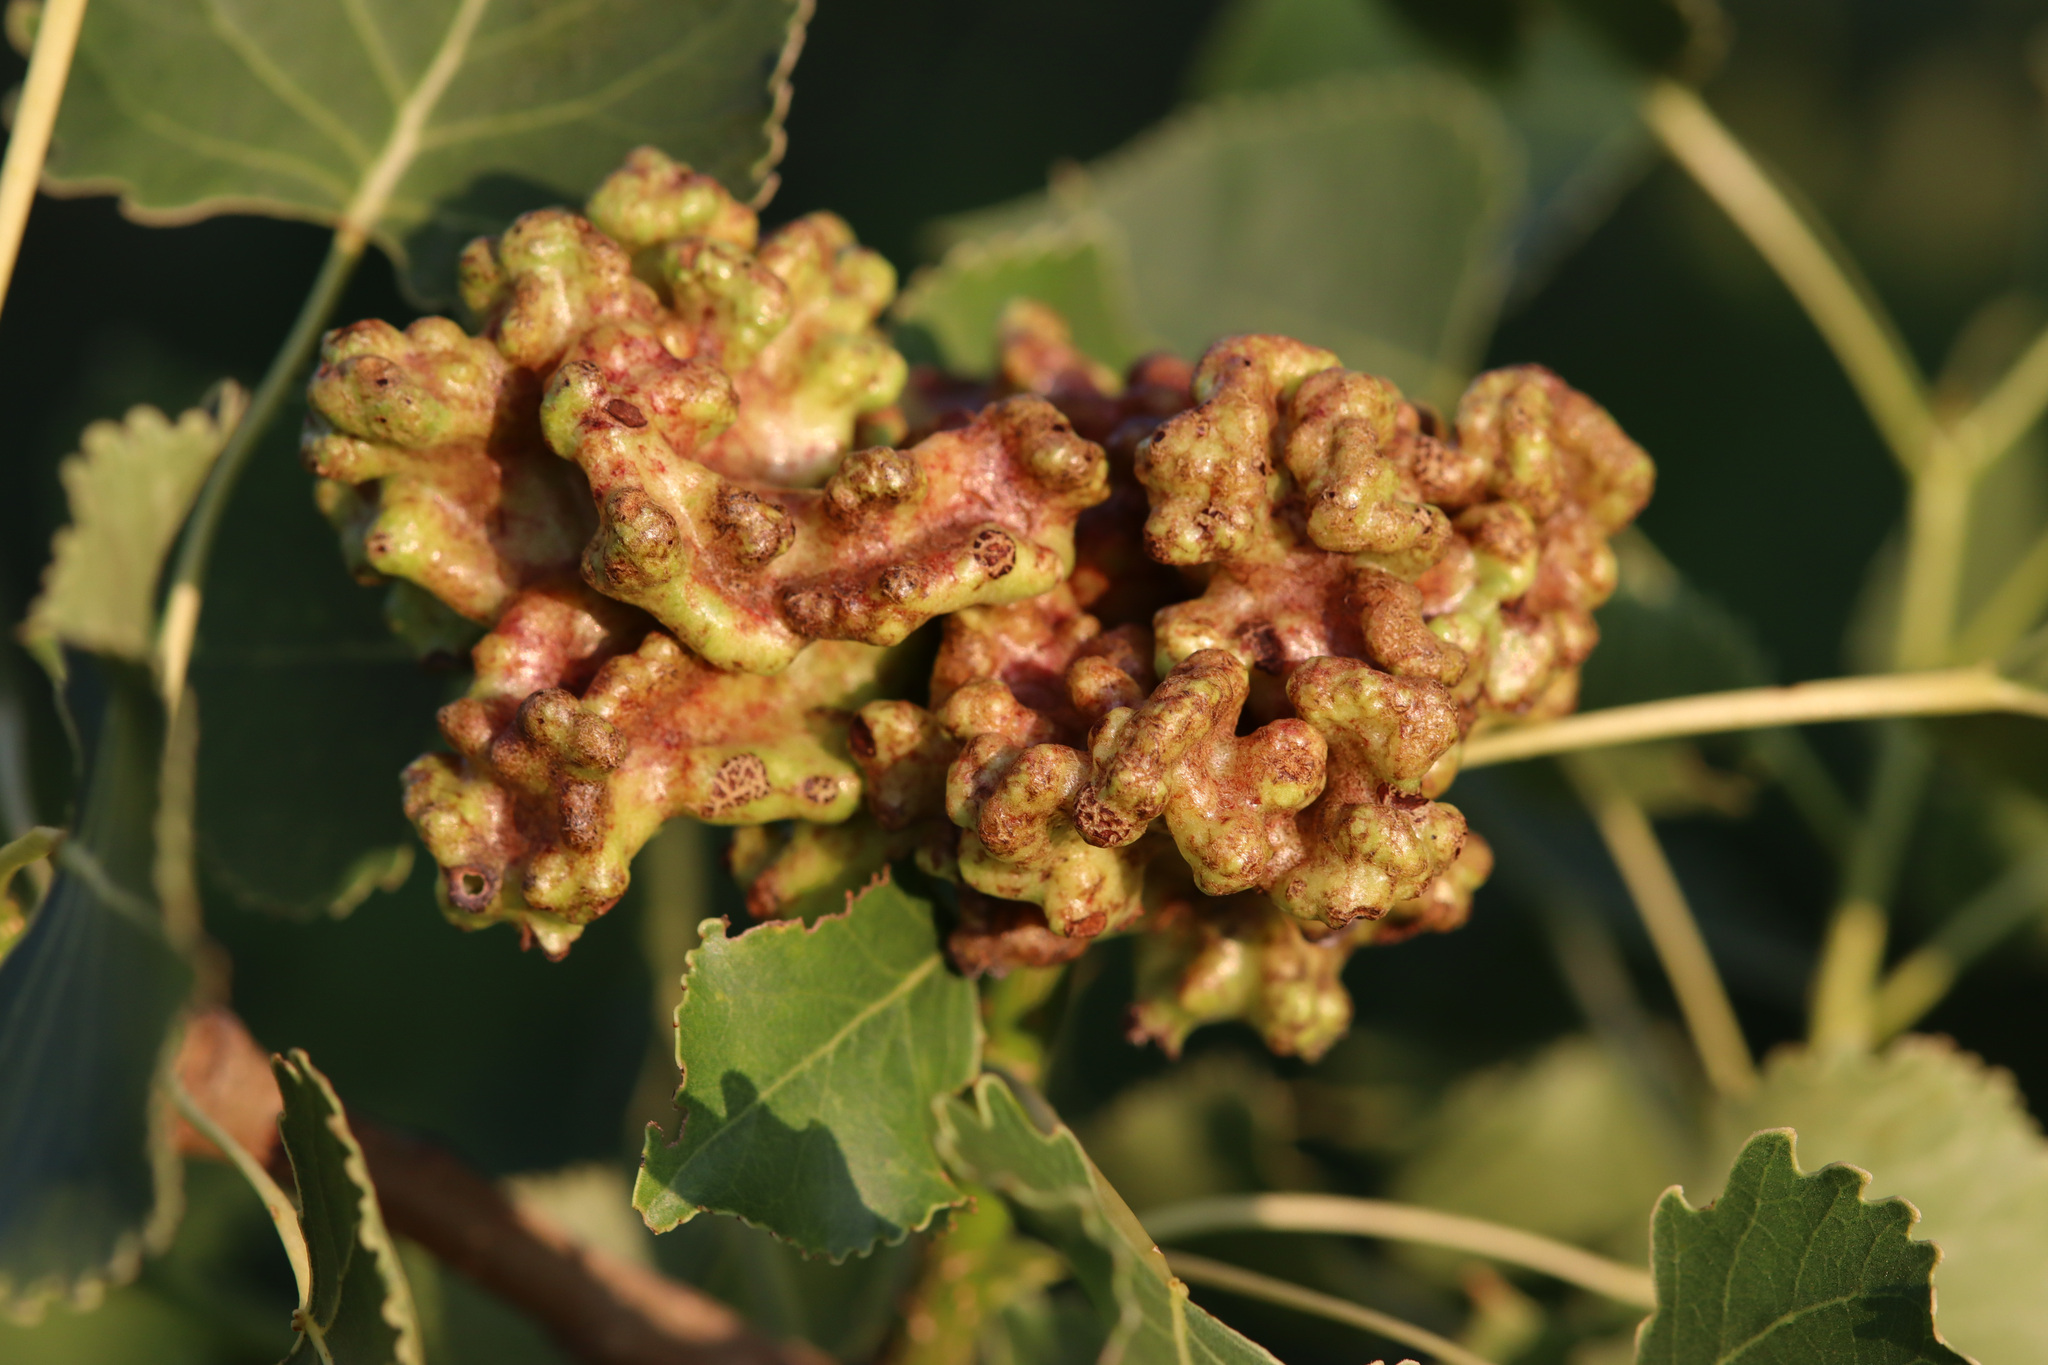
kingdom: Animalia
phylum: Arthropoda
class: Insecta
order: Hemiptera
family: Aphididae
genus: Mordwilkoja
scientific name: Mordwilkoja vagabunda
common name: Poplar vagabond aphid
